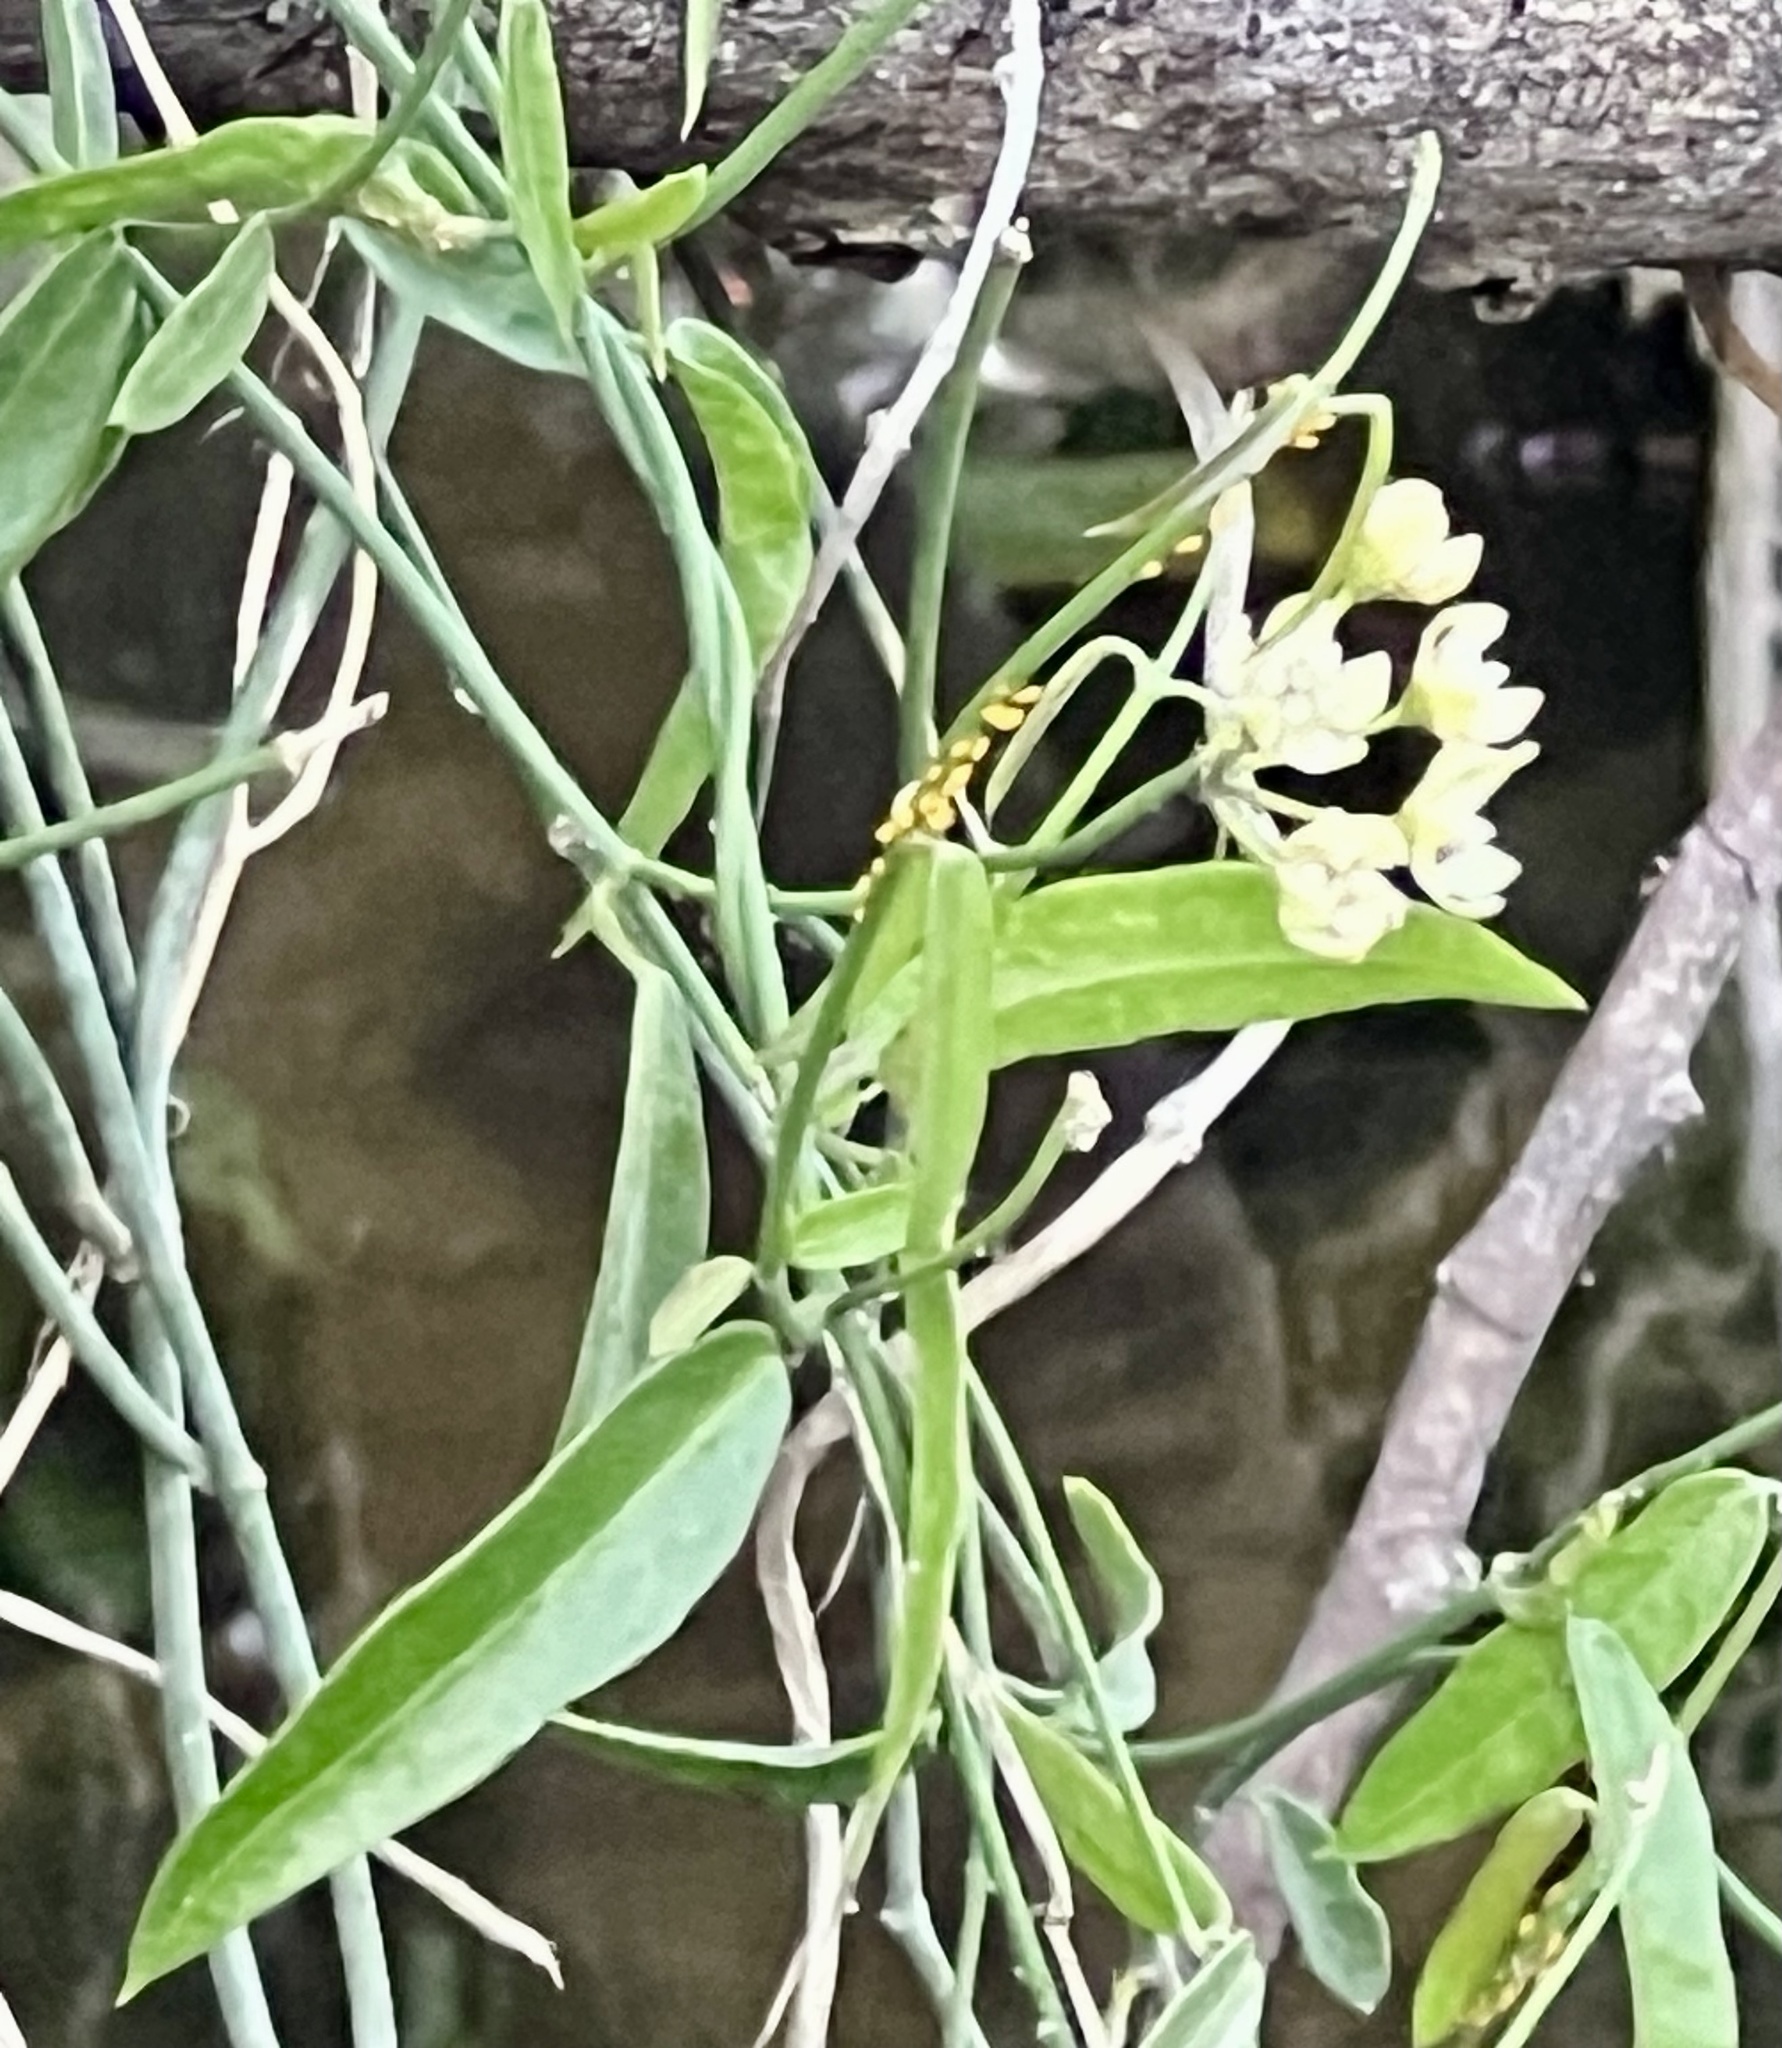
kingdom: Plantae
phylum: Tracheophyta
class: Magnoliopsida
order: Gentianales
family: Apocynaceae
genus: Funastrum
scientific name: Funastrum clausum
